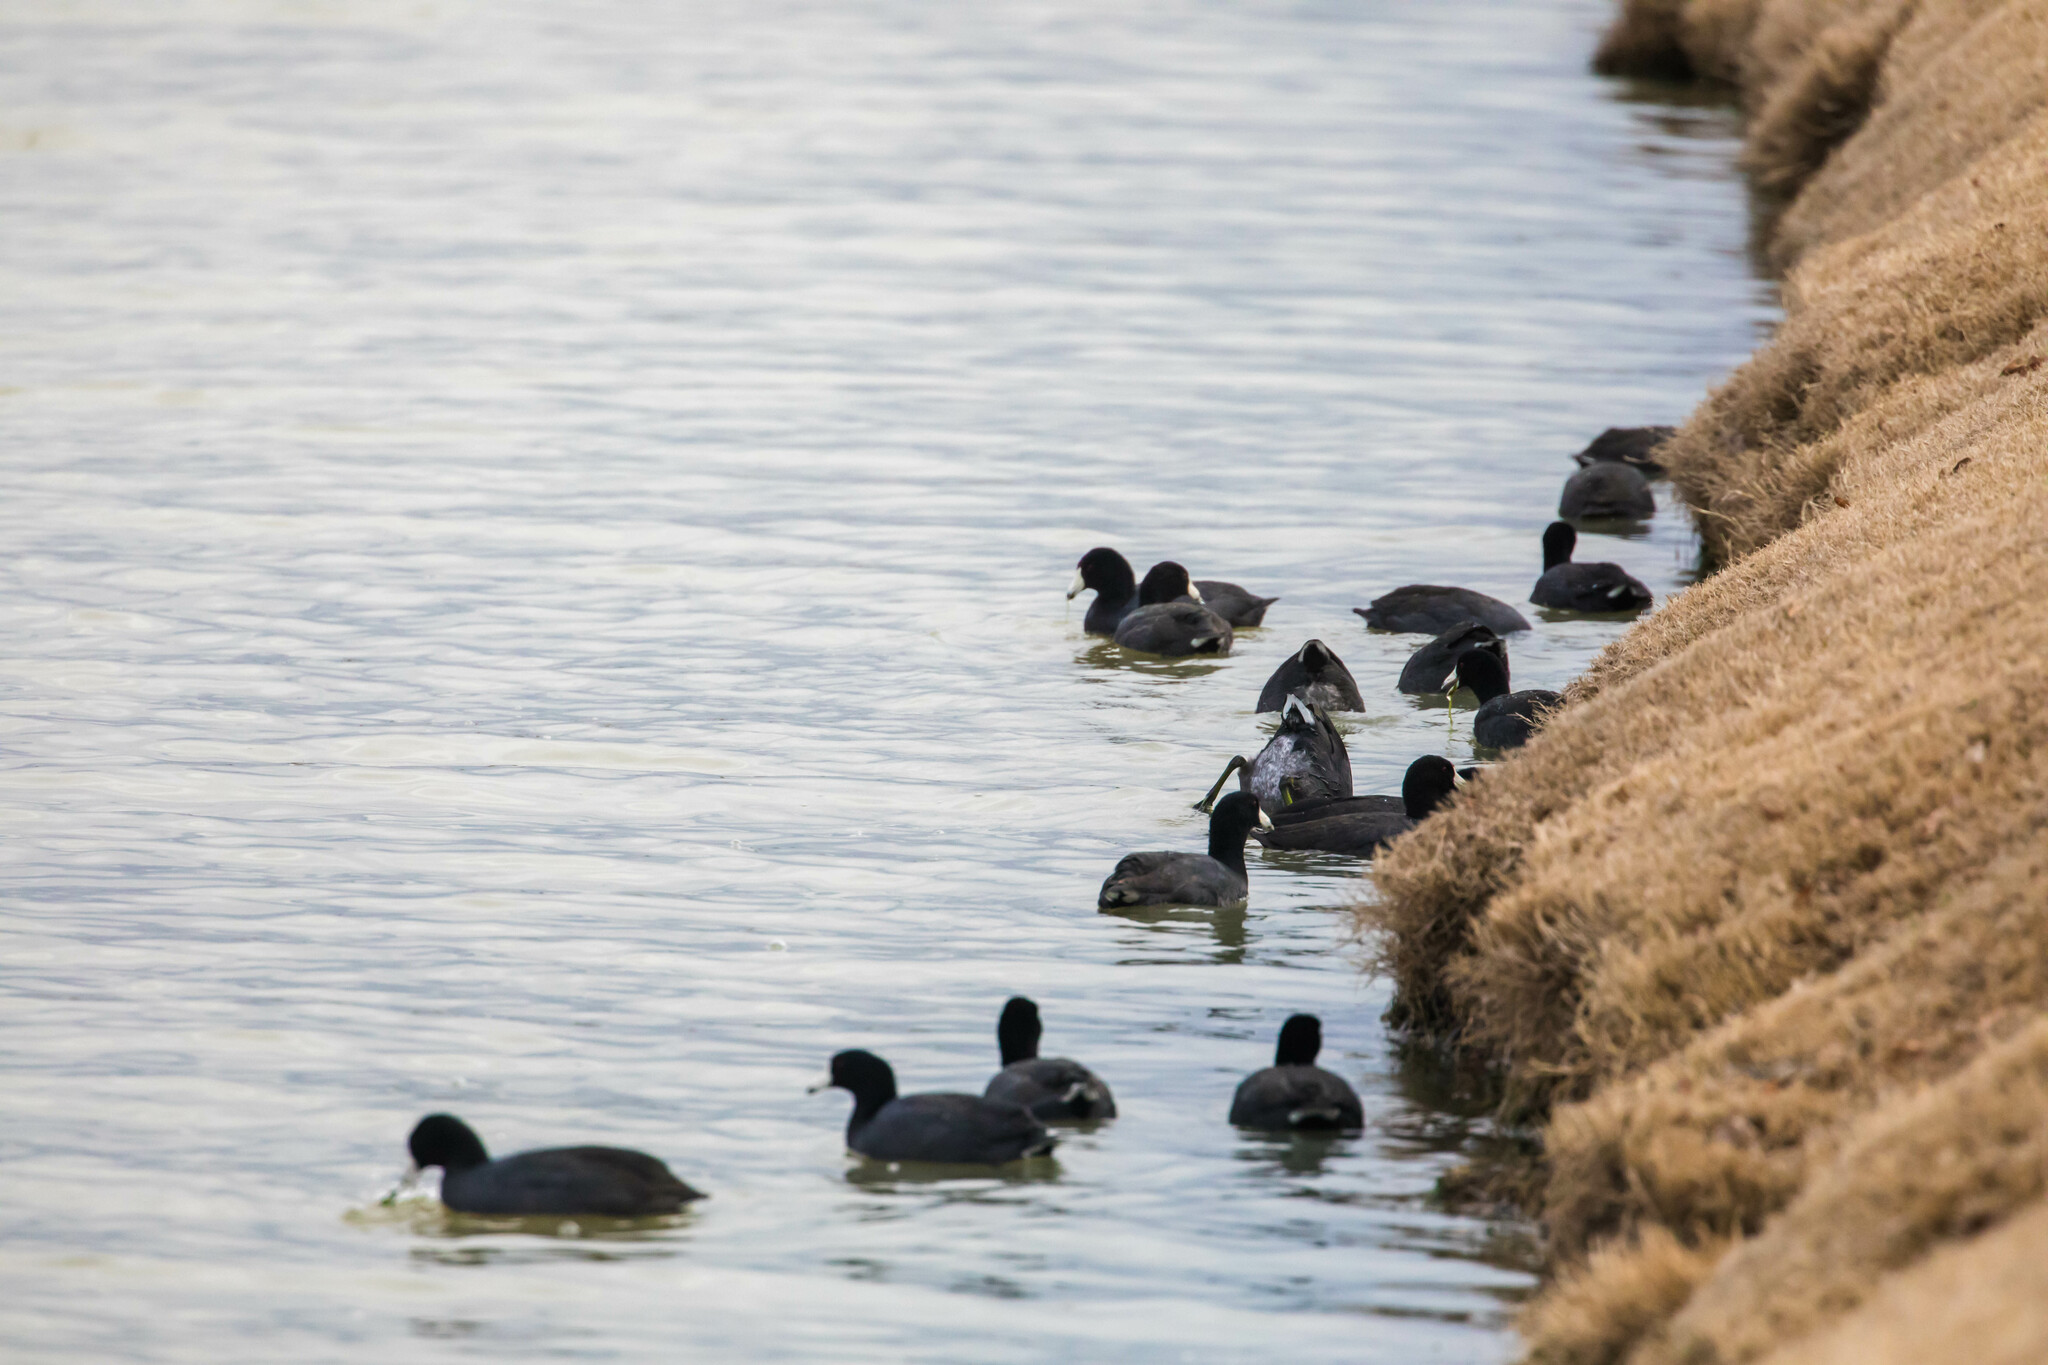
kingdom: Animalia
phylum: Chordata
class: Aves
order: Gruiformes
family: Rallidae
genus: Fulica
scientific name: Fulica americana
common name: American coot
